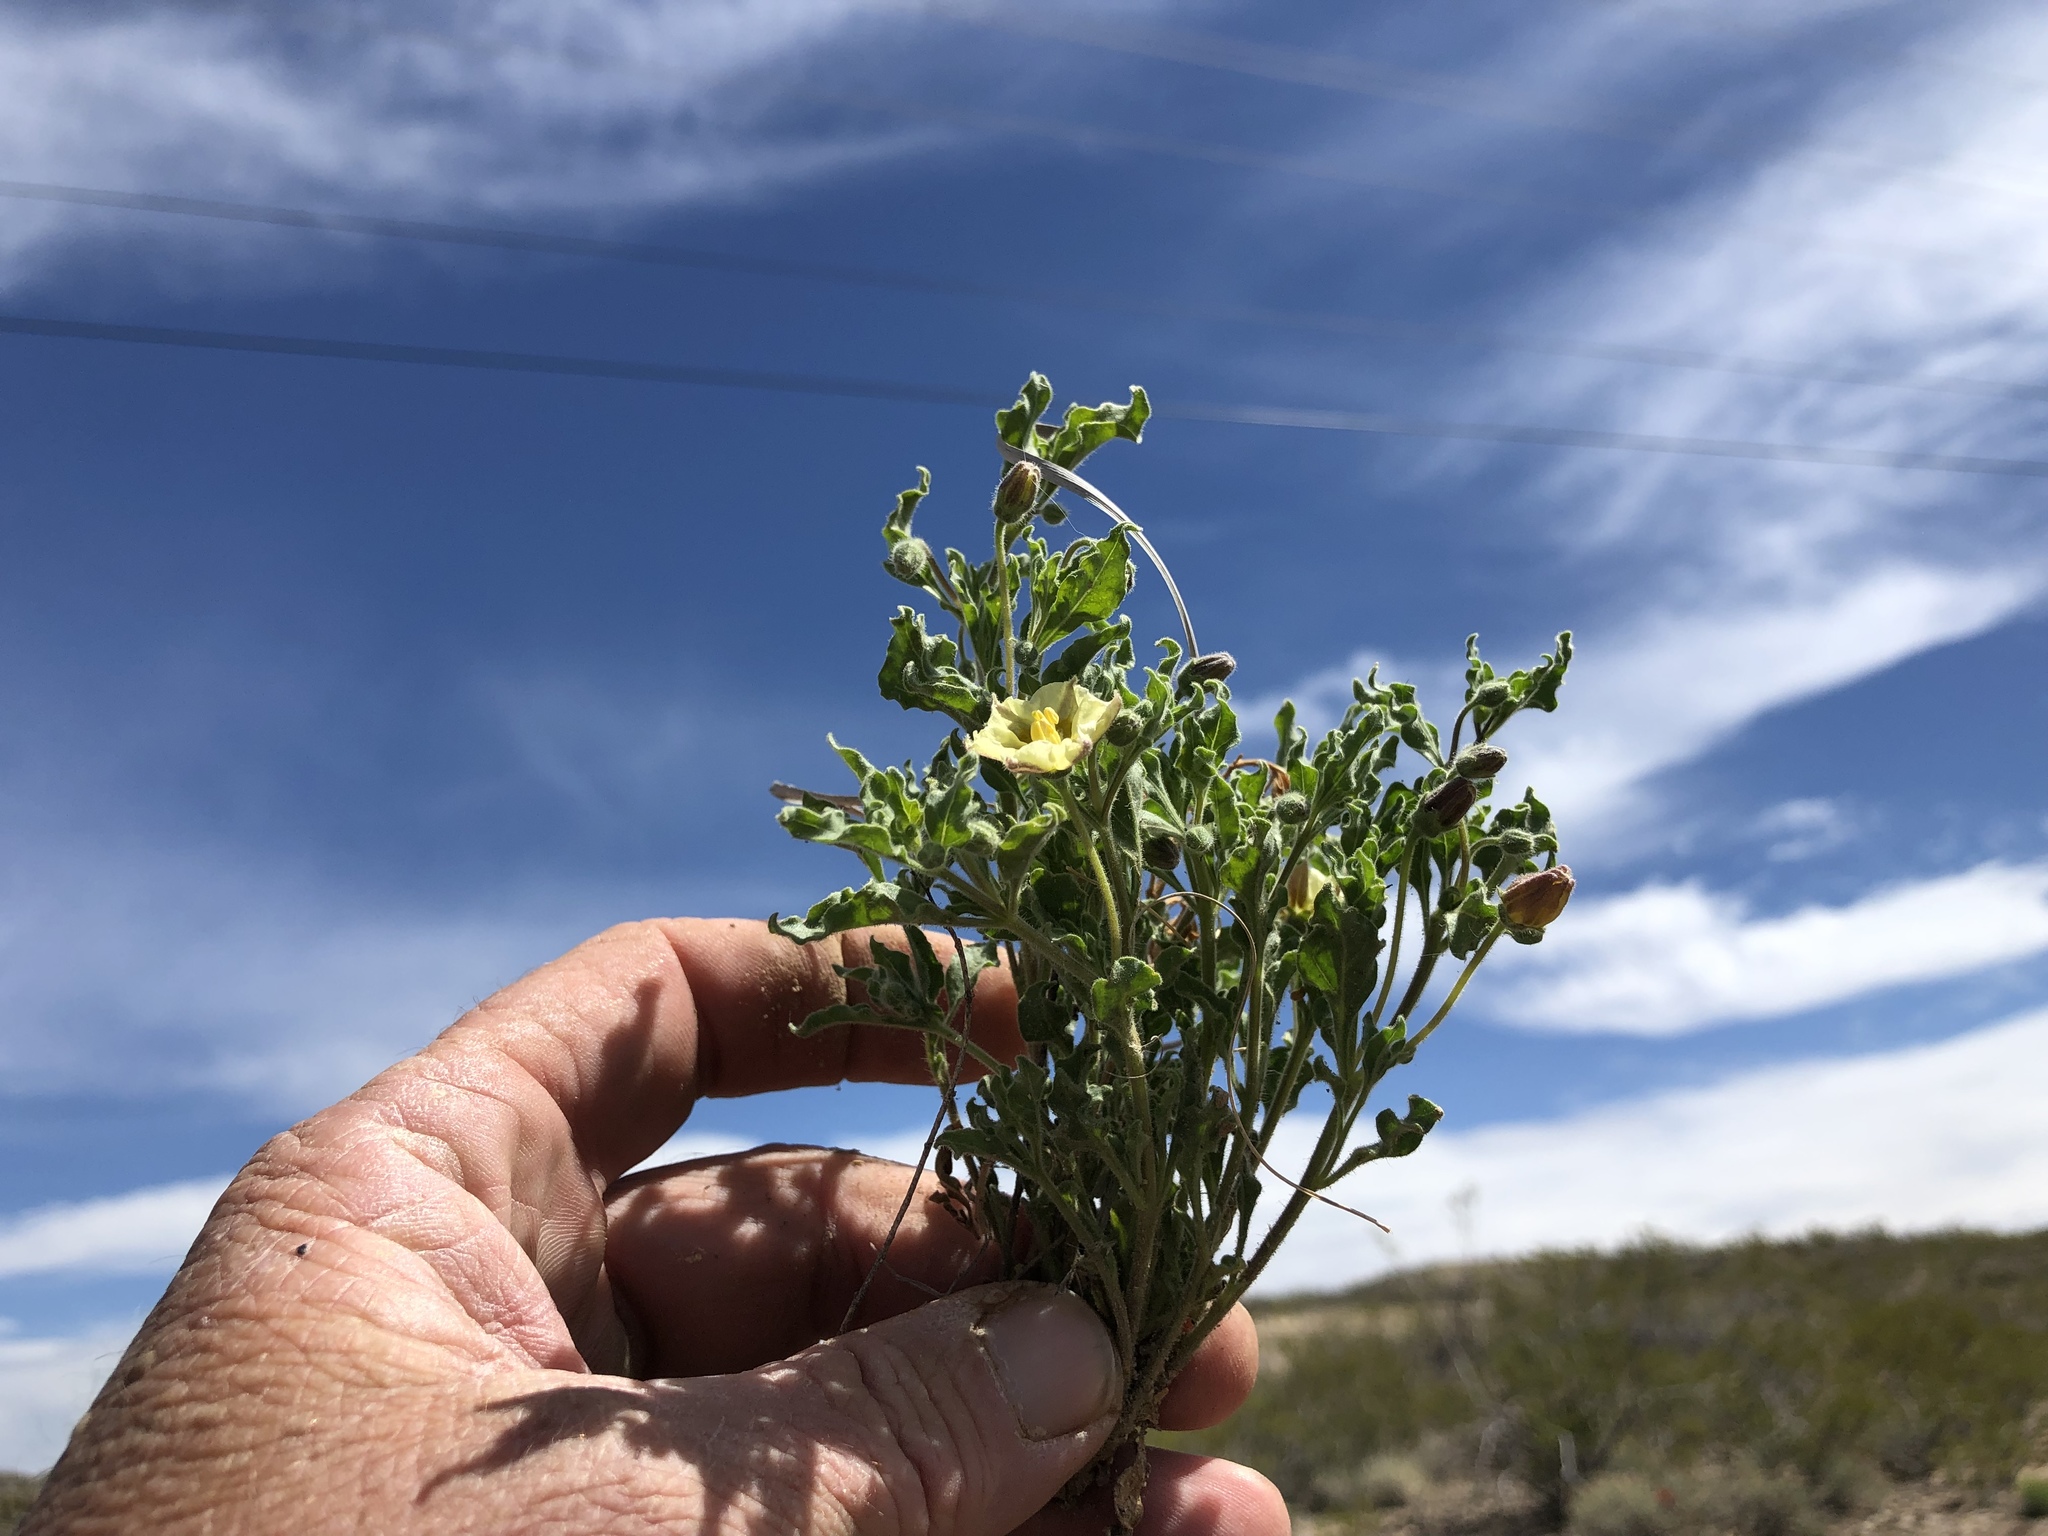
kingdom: Plantae
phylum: Tracheophyta
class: Magnoliopsida
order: Solanales
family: Solanaceae
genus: Chamaesaracha
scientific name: Chamaesaracha sordida
